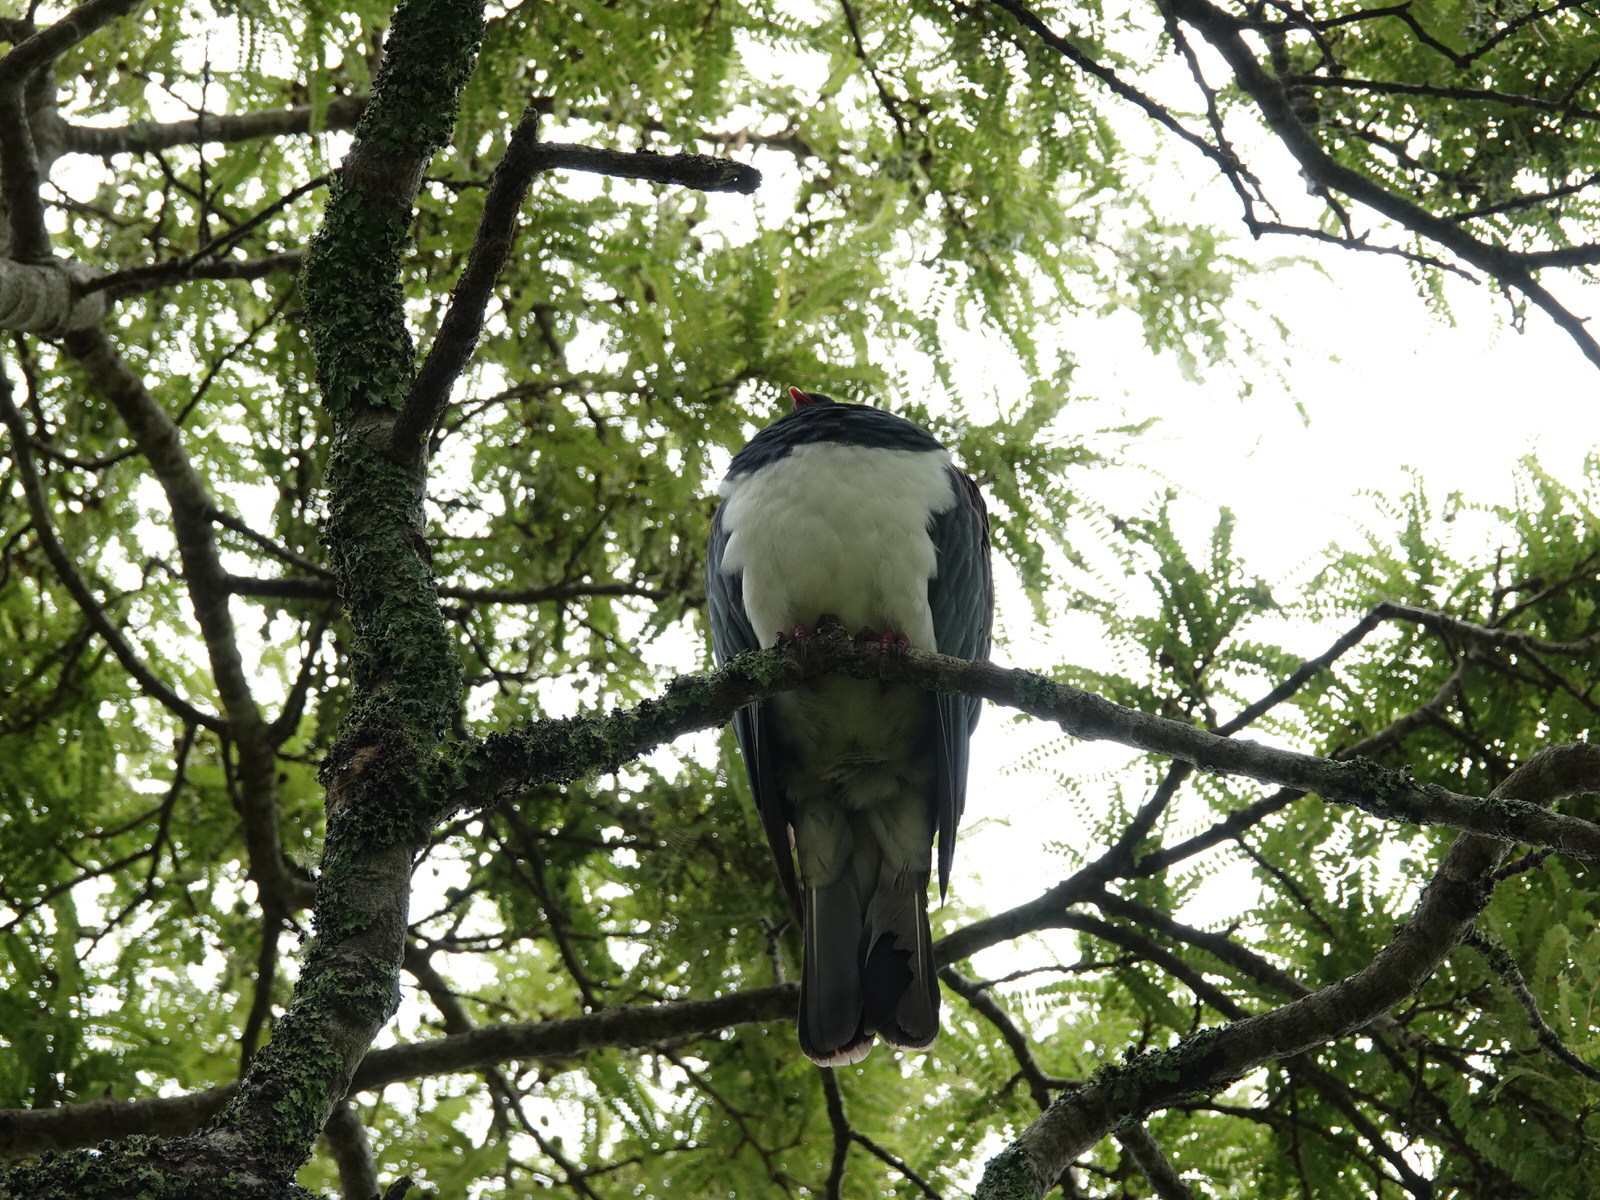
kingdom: Animalia
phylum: Chordata
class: Aves
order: Columbiformes
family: Columbidae
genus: Hemiphaga
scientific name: Hemiphaga novaeseelandiae
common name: New zealand pigeon
